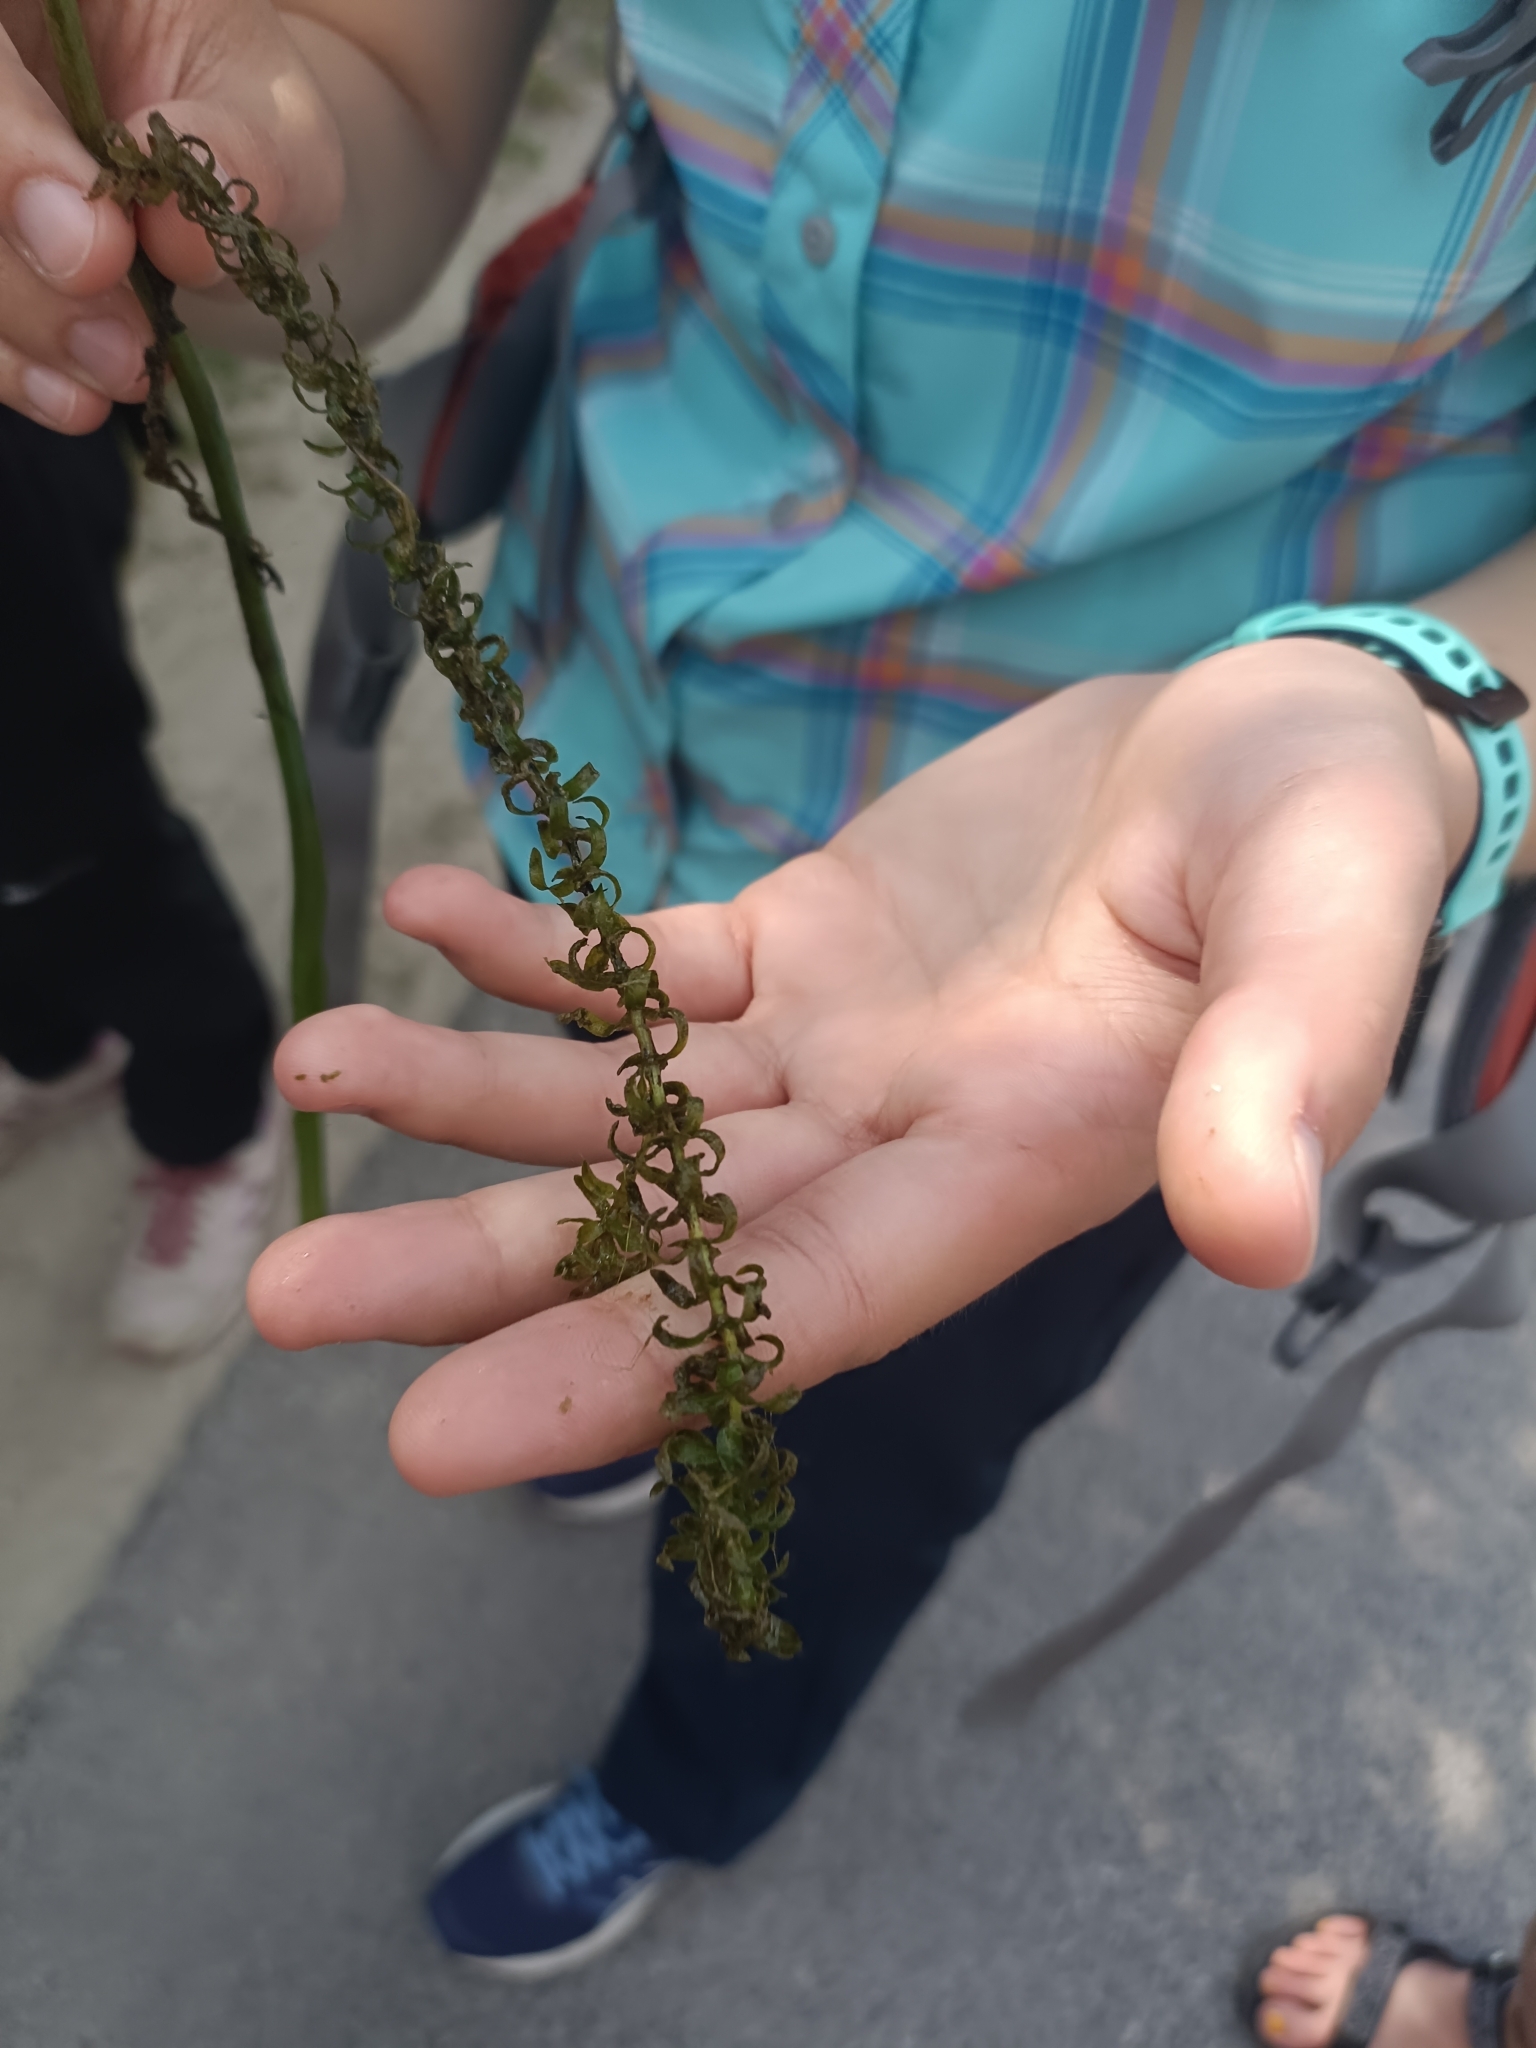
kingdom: Plantae
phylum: Tracheophyta
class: Liliopsida
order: Alismatales
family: Hydrocharitaceae
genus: Elodea
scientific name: Elodea canadensis
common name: Canadian waterweed
